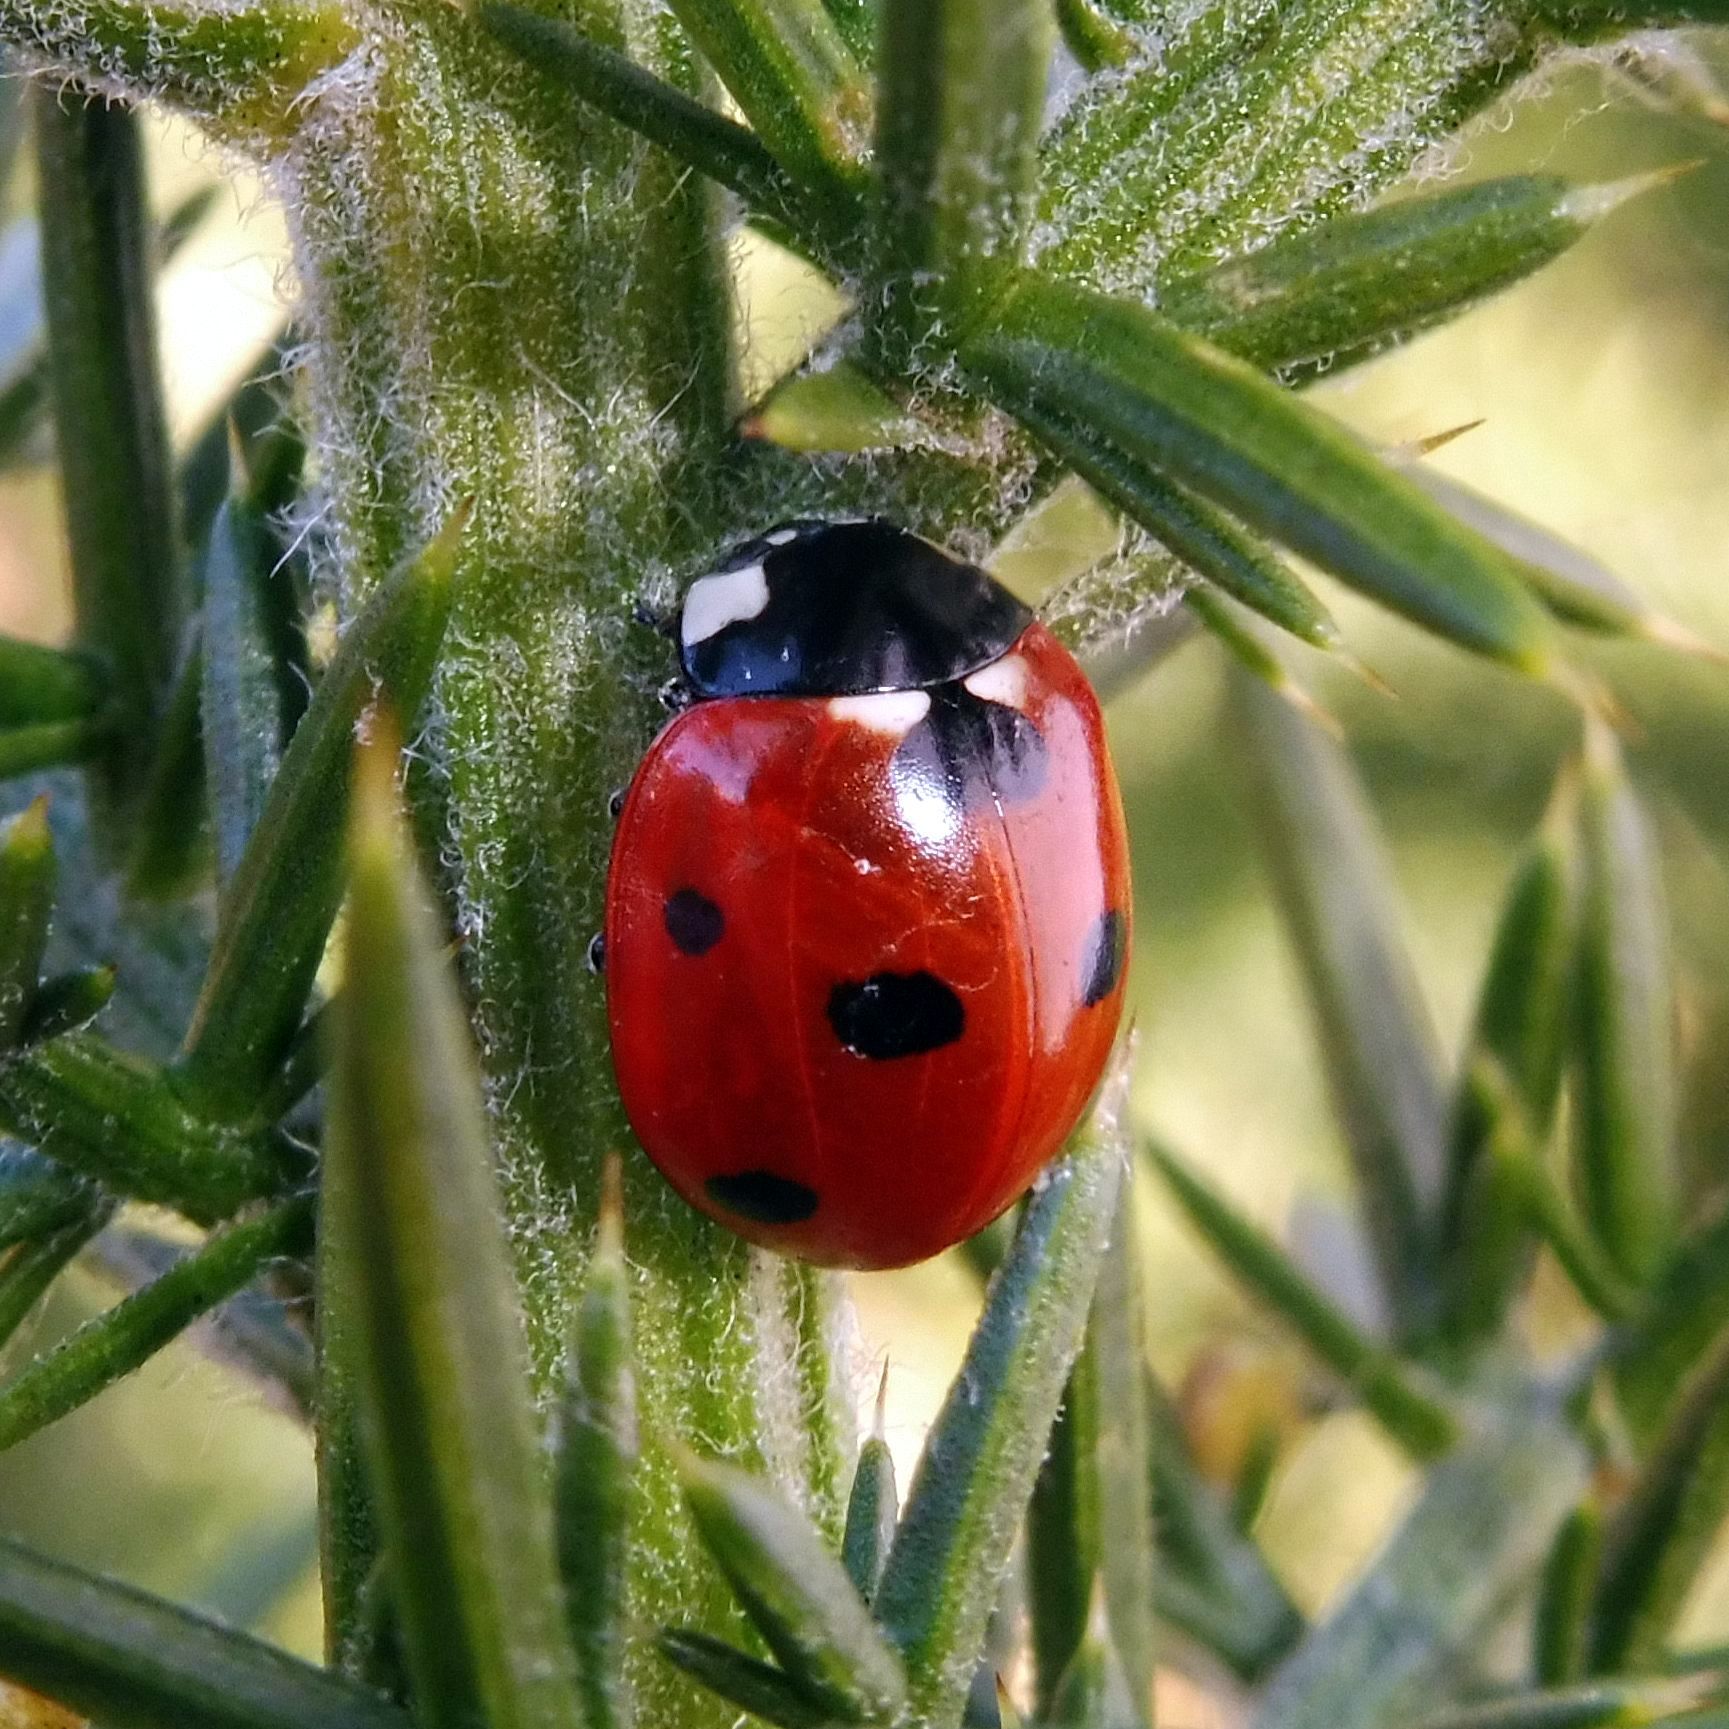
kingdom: Animalia
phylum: Arthropoda
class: Insecta
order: Coleoptera
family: Coccinellidae
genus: Coccinella
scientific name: Coccinella septempunctata
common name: Sevenspotted lady beetle
